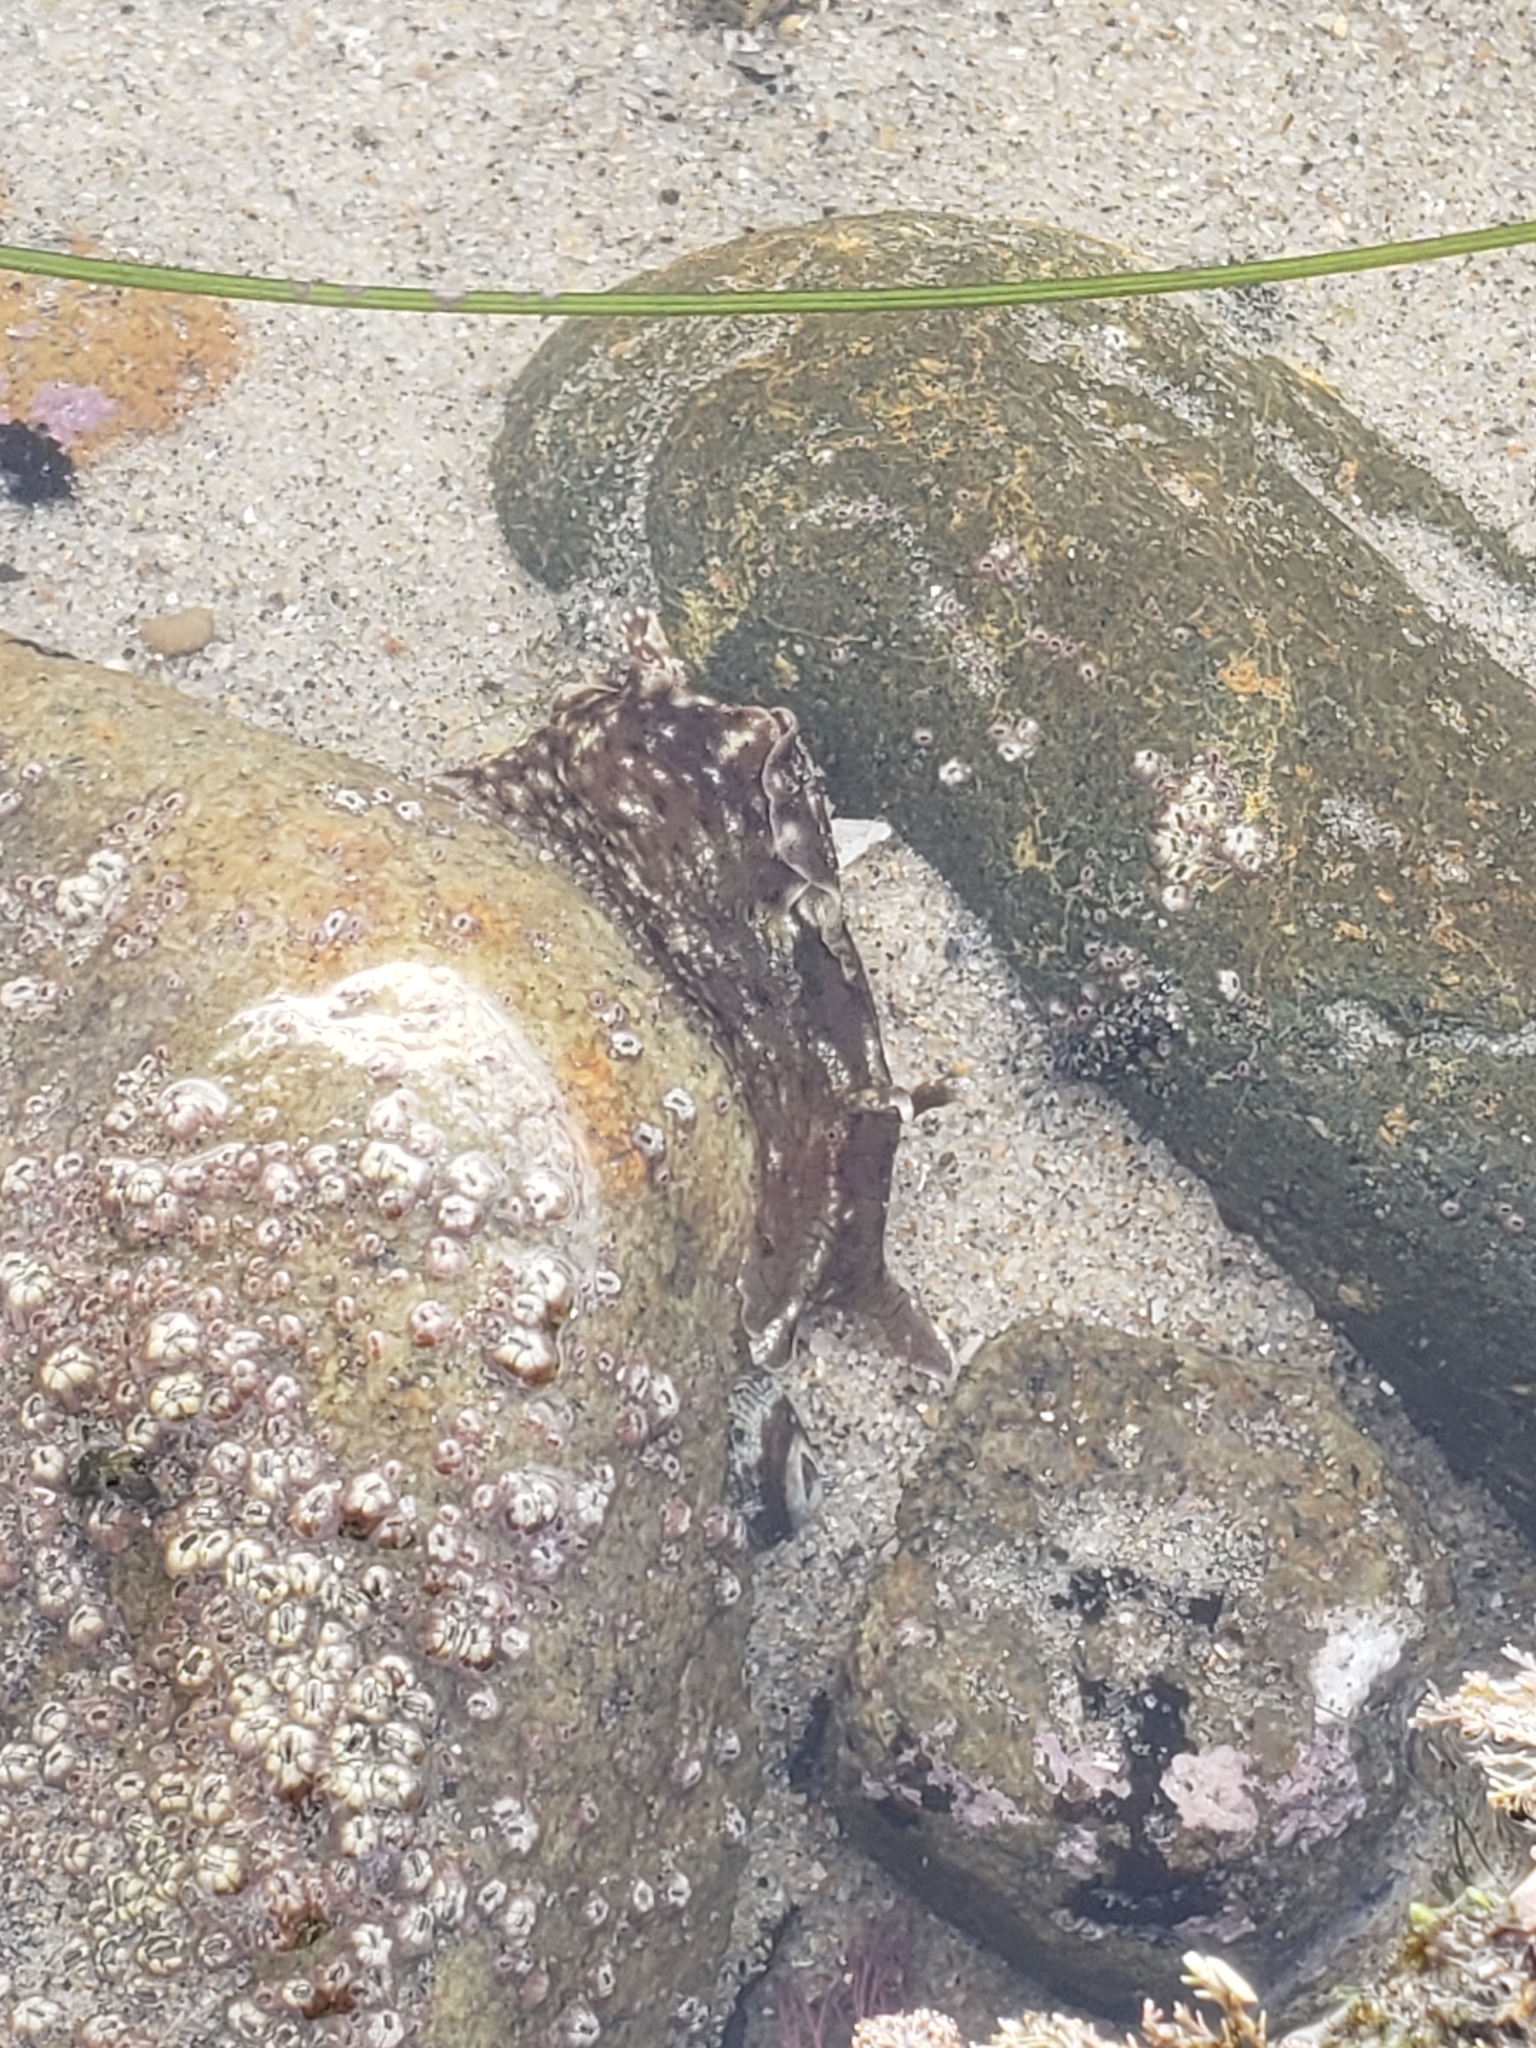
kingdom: Animalia
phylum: Mollusca
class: Gastropoda
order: Aplysiida
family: Aplysiidae
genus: Aplysia
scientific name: Aplysia californica
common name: California seahare
